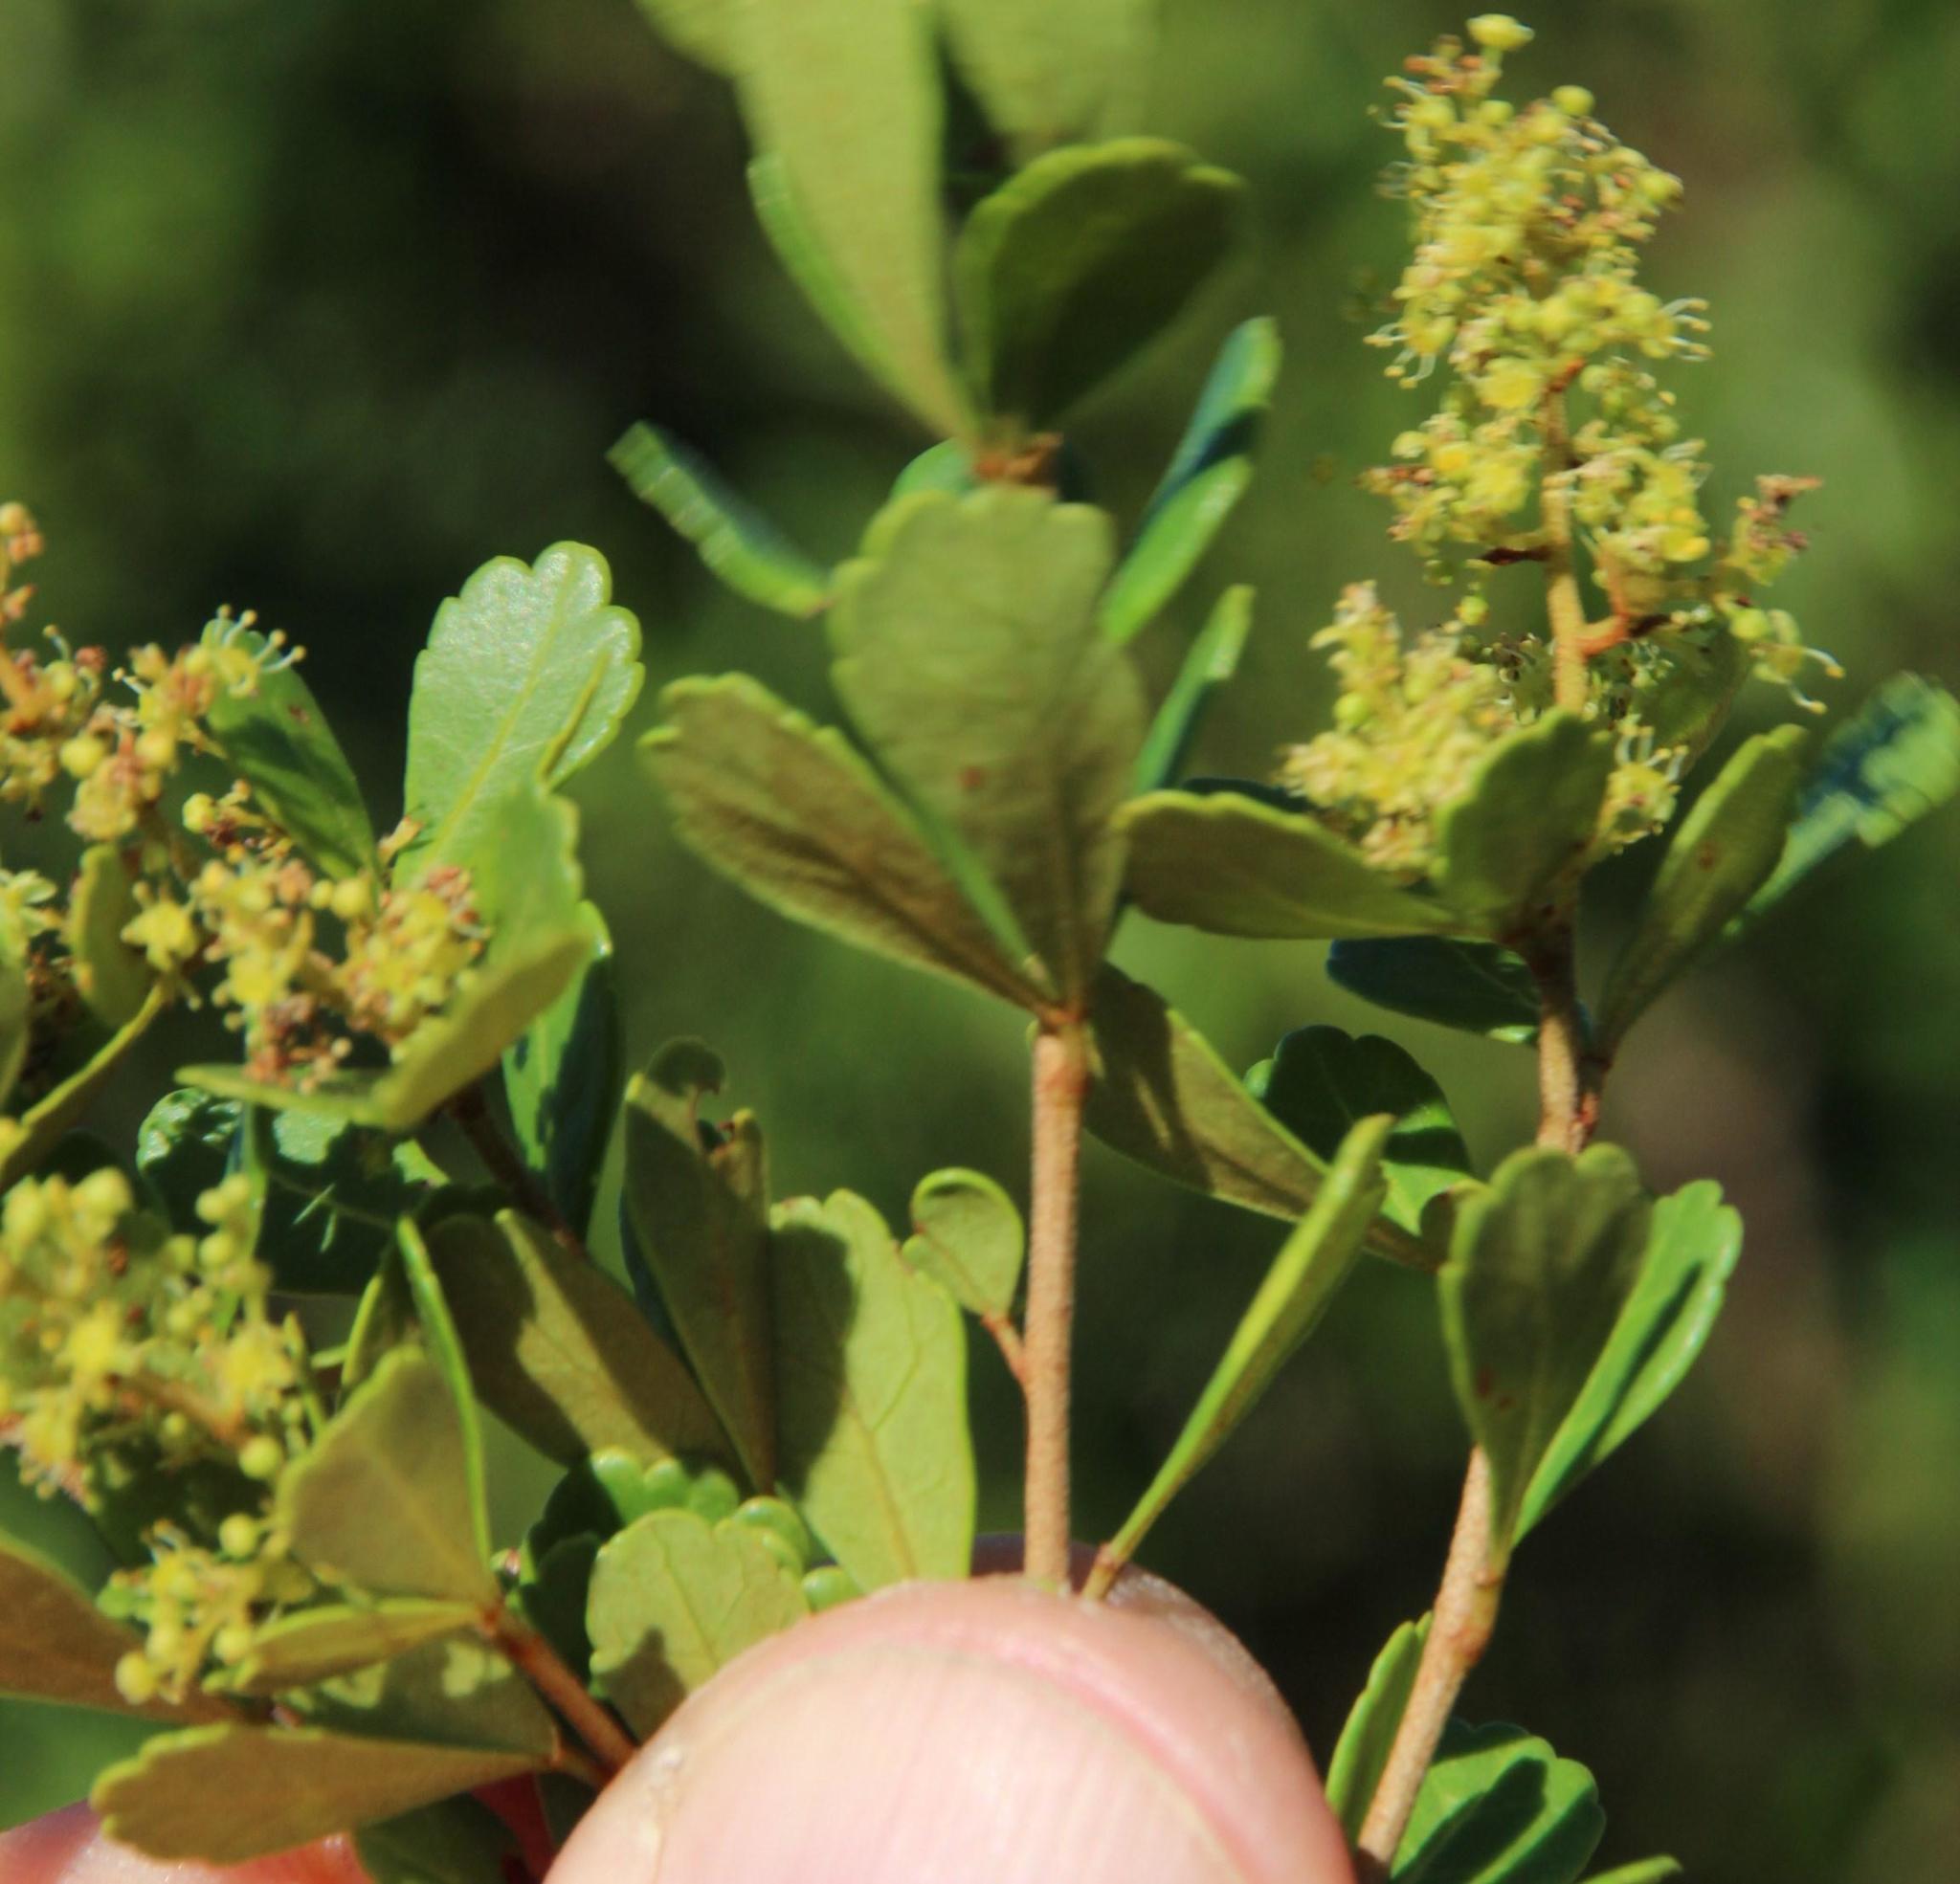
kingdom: Plantae
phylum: Tracheophyta
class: Magnoliopsida
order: Sapindales
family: Anacardiaceae
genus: Searsia
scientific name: Searsia crenata
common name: Crowberry
